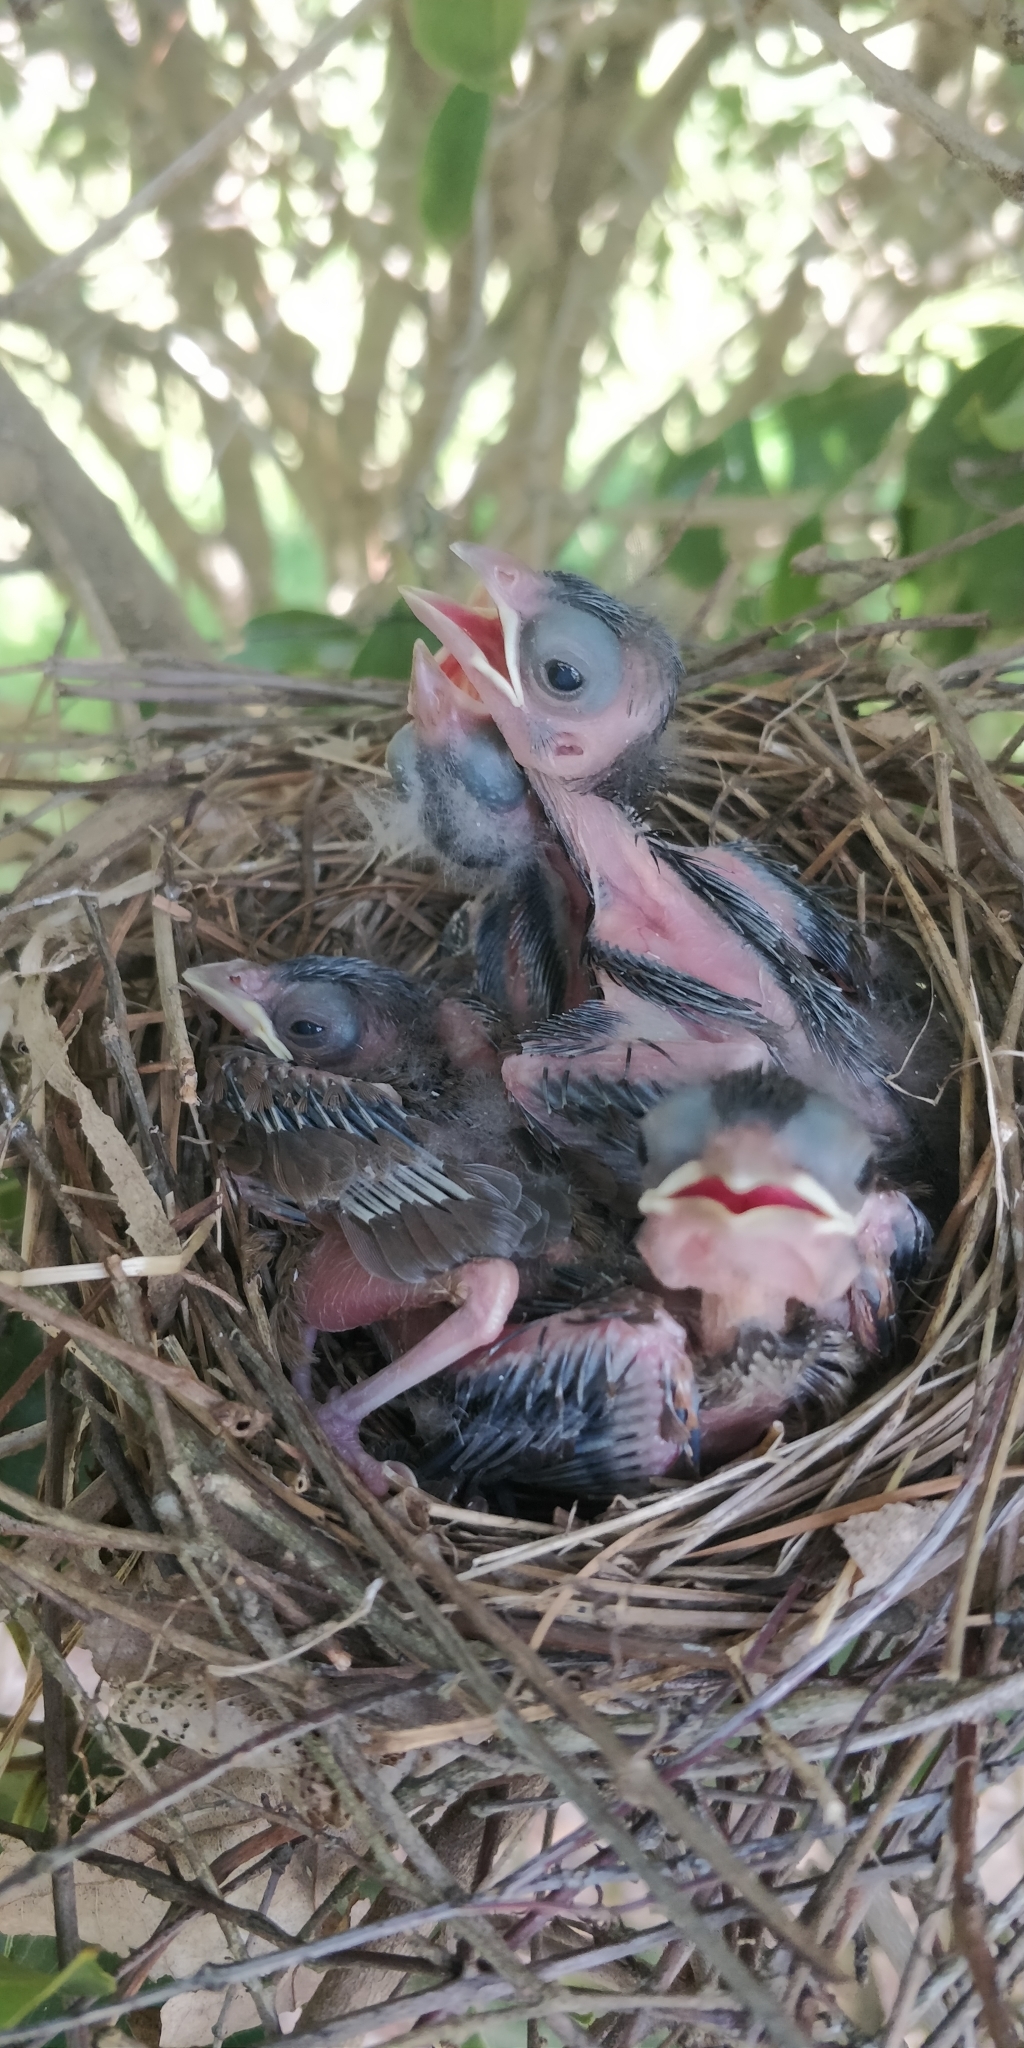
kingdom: Animalia
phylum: Chordata
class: Aves
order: Passeriformes
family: Cardinalidae
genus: Cardinalis
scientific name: Cardinalis cardinalis
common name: Northern cardinal
